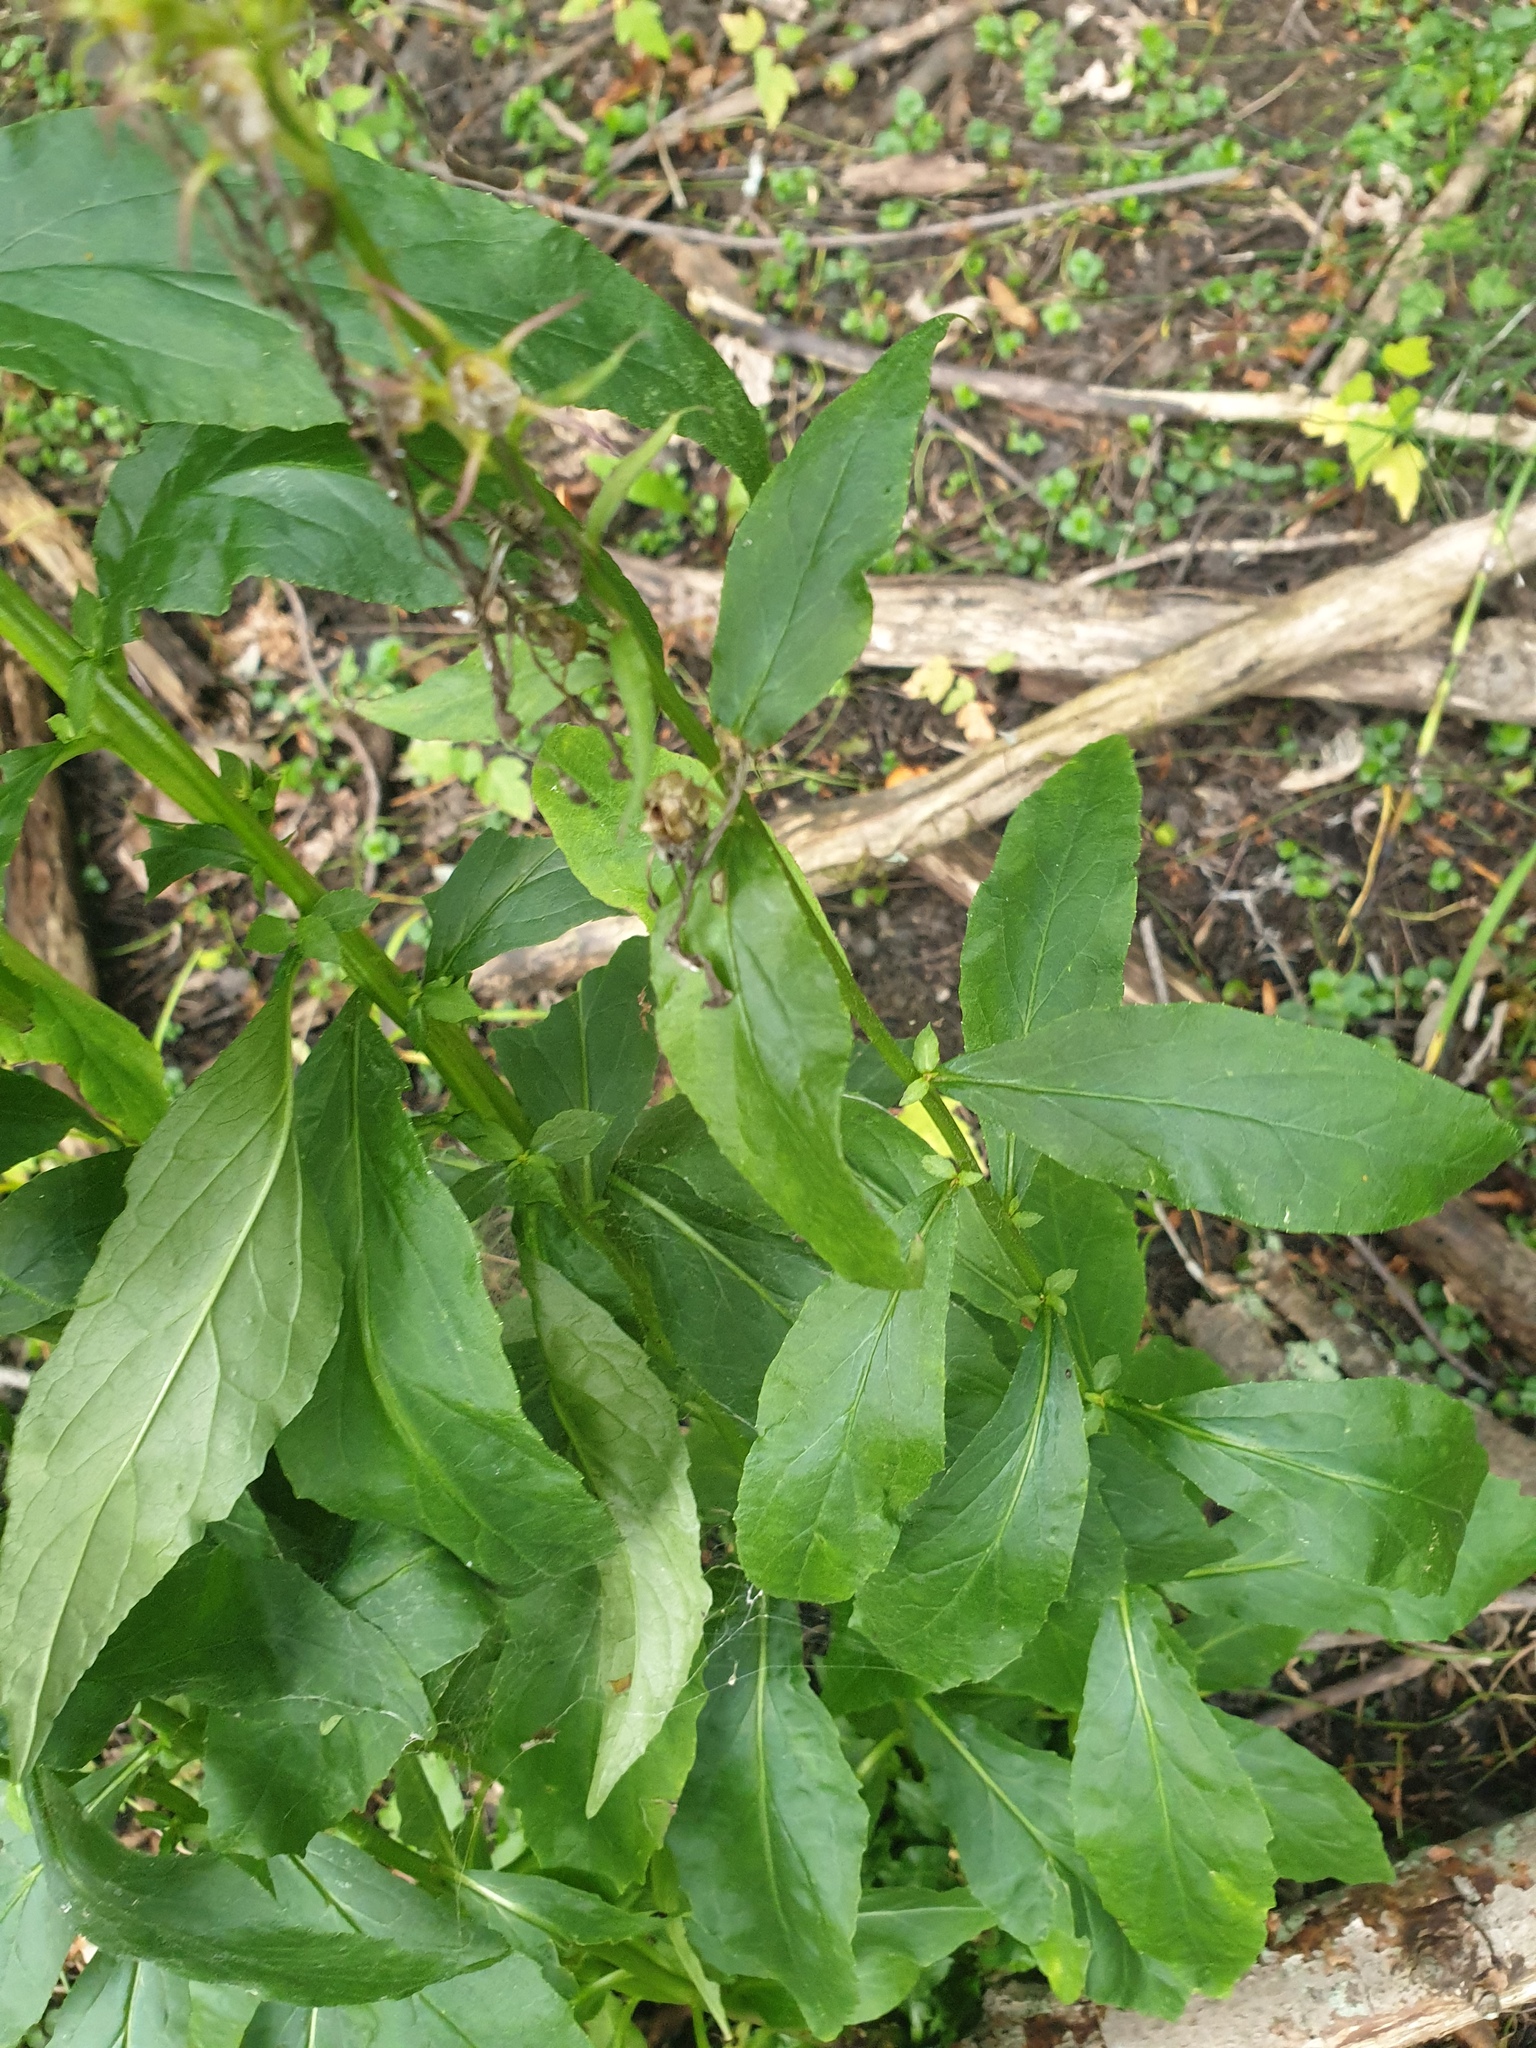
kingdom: Plantae
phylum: Tracheophyta
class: Magnoliopsida
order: Asterales
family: Campanulaceae
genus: Lobelia
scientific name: Lobelia cardinalis
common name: Cardinal flower
